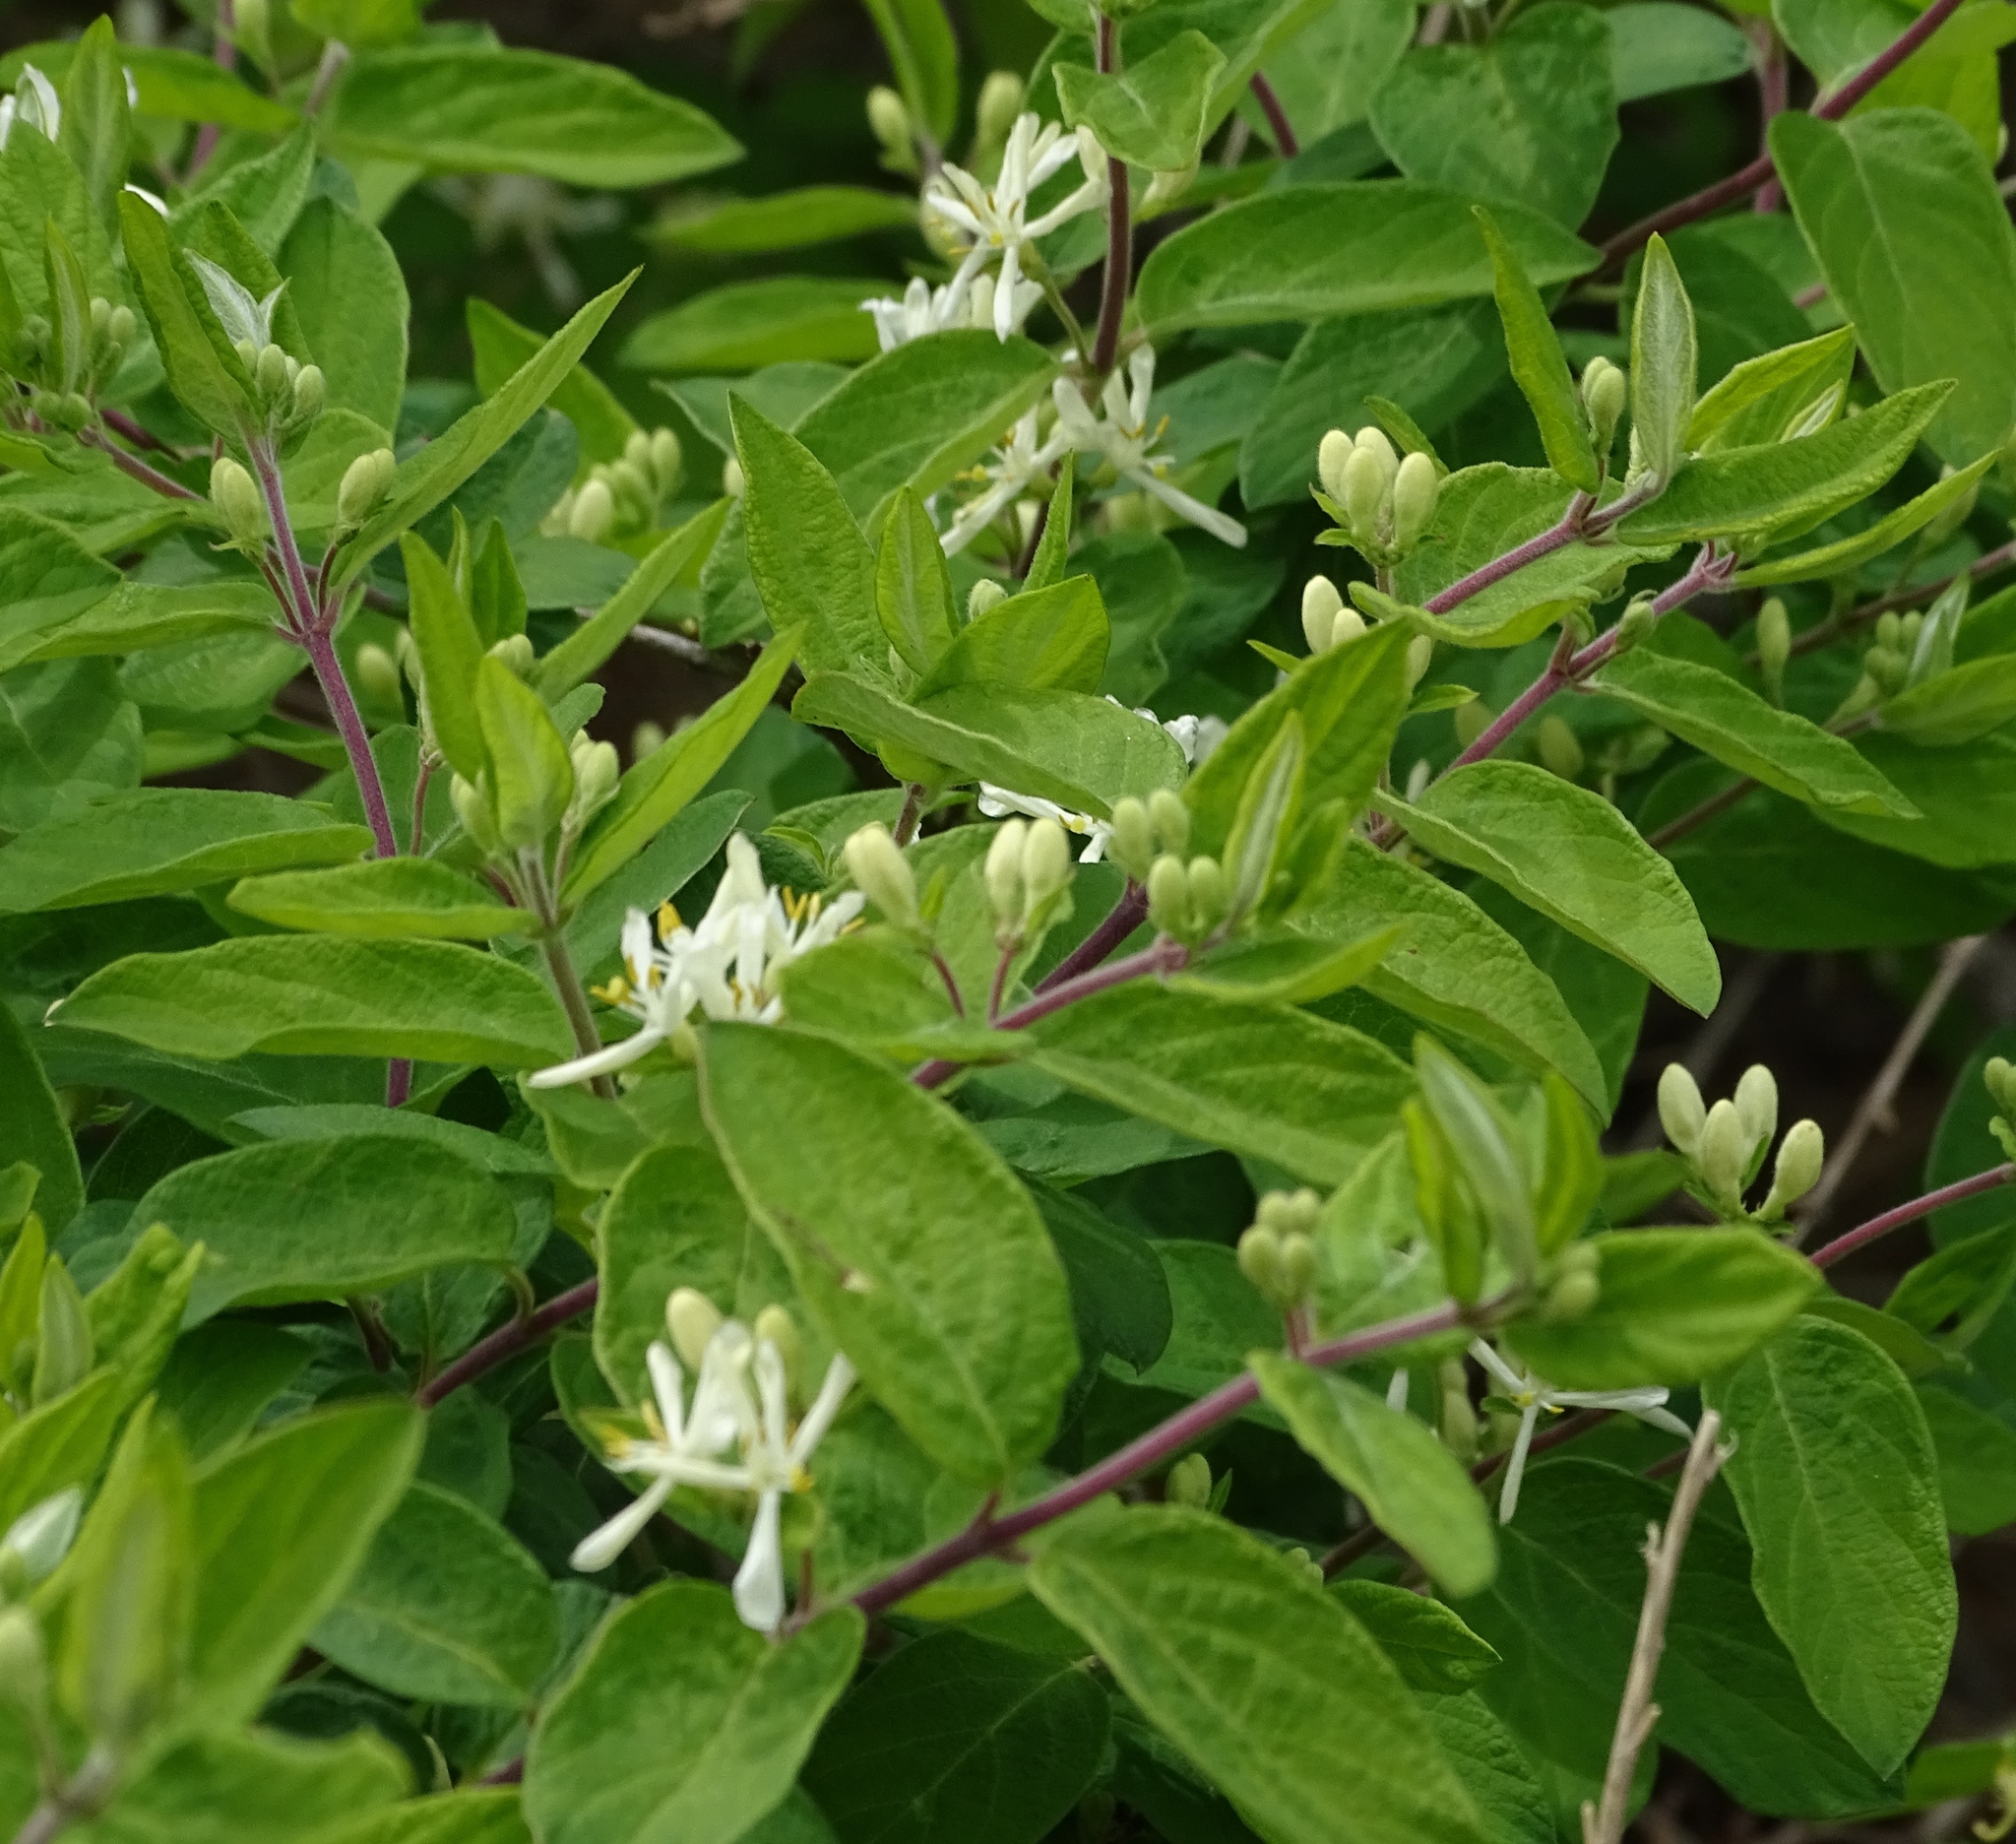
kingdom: Plantae
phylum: Tracheophyta
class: Magnoliopsida
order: Dipsacales
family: Caprifoliaceae
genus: Lonicera
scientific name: Lonicera
